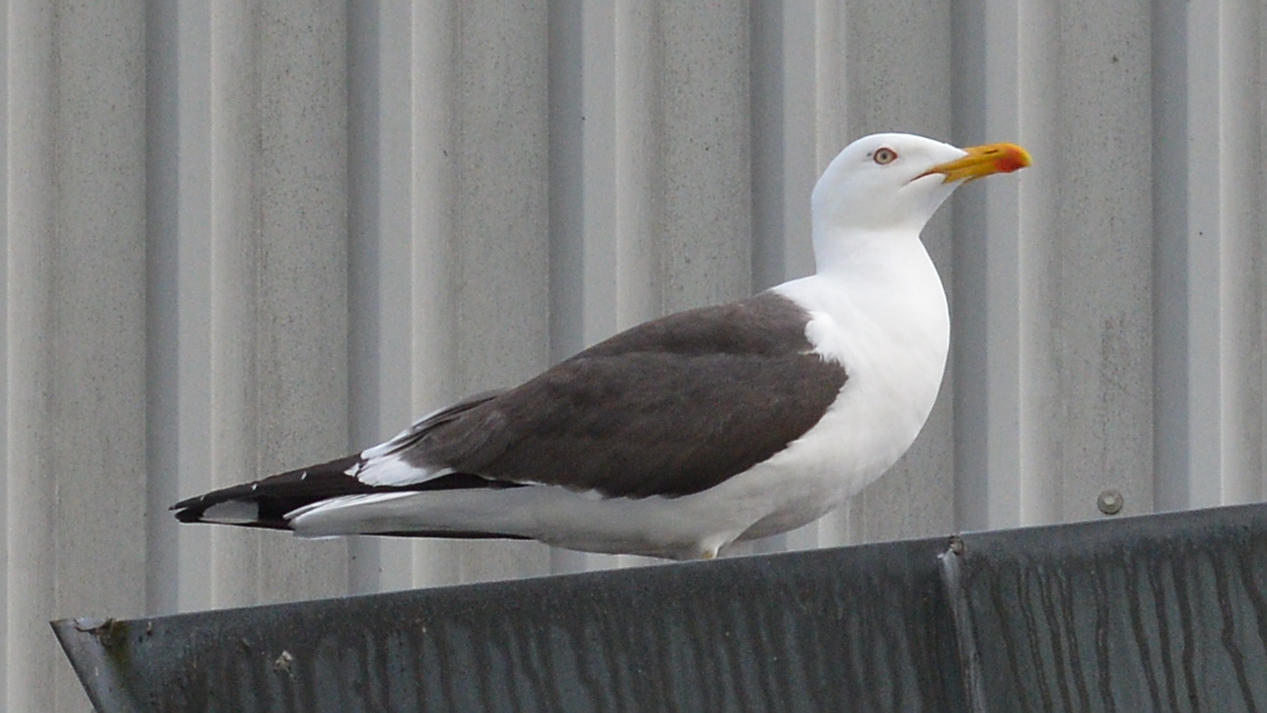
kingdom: Animalia
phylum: Chordata
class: Aves
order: Charadriiformes
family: Laridae
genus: Larus
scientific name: Larus fuscus
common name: Lesser black-backed gull
